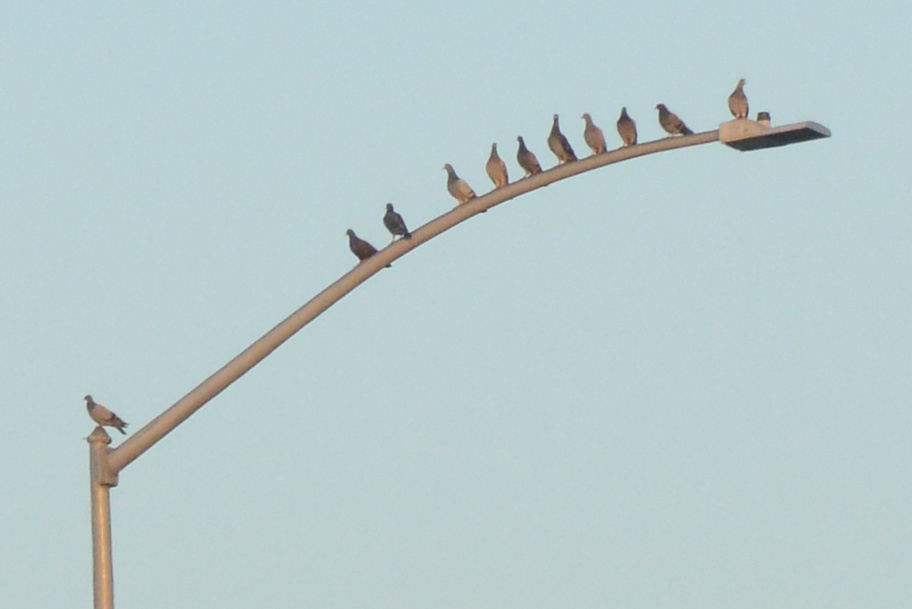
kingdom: Animalia
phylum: Chordata
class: Aves
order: Columbiformes
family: Columbidae
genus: Columba
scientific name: Columba livia
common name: Rock pigeon
